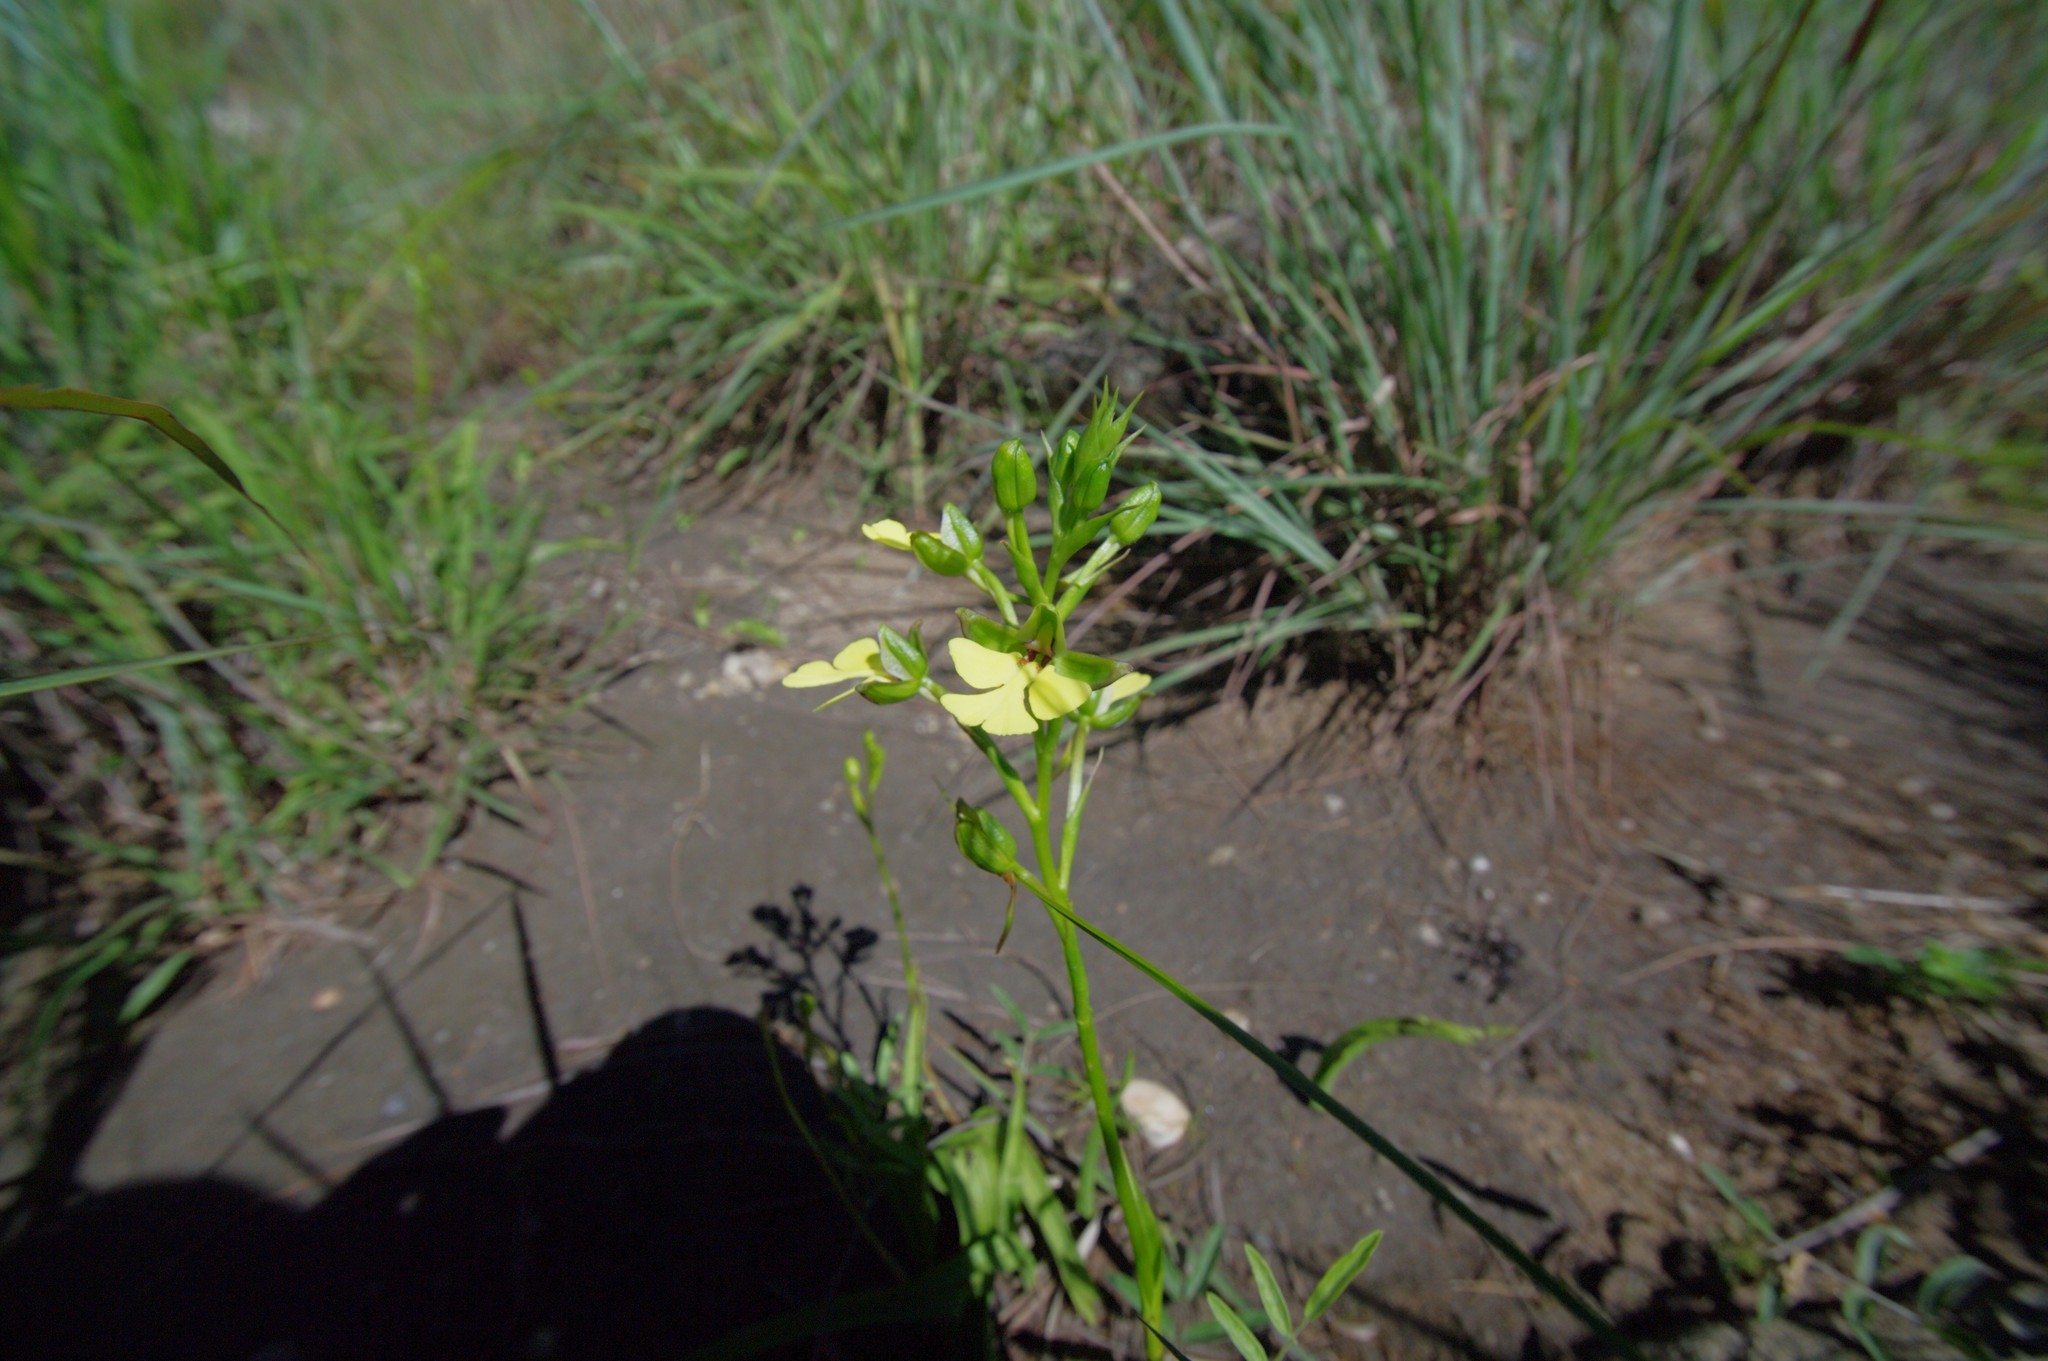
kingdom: Plantae
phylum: Tracheophyta
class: Liliopsida
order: Asparagales
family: Orchidaceae
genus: Cynorkis
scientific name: Cynorkis flexuosa
